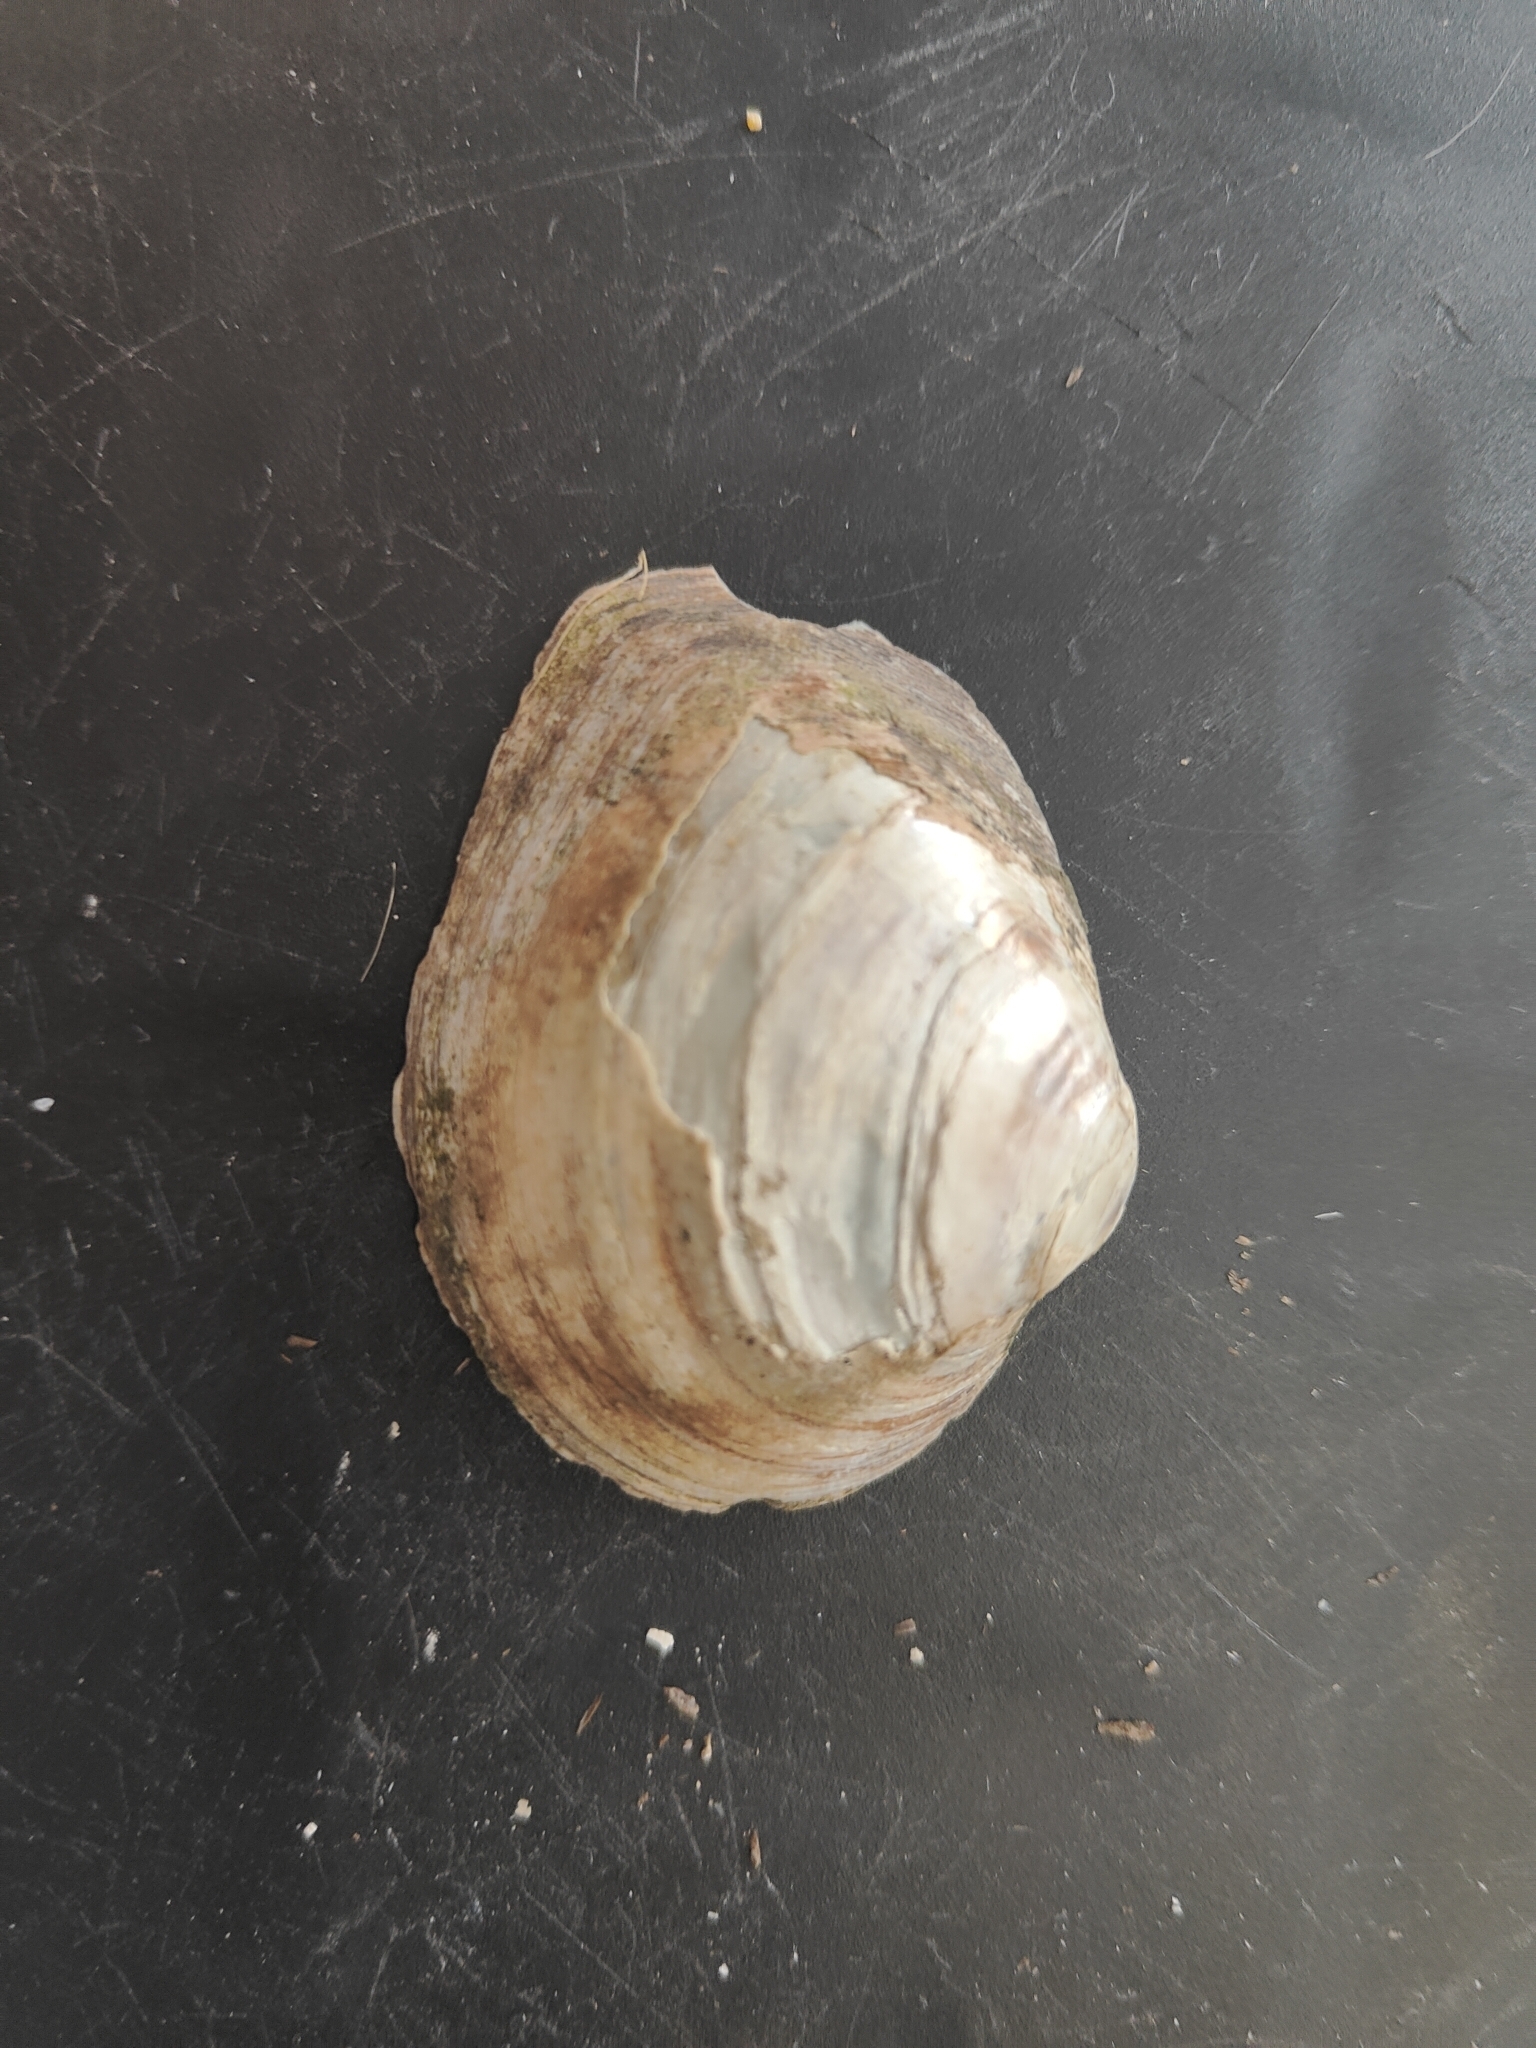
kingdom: Animalia
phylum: Mollusca
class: Bivalvia
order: Unionida
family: Unionidae
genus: Fusconaia
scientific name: Fusconaia flava
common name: Wabash pigtoe
